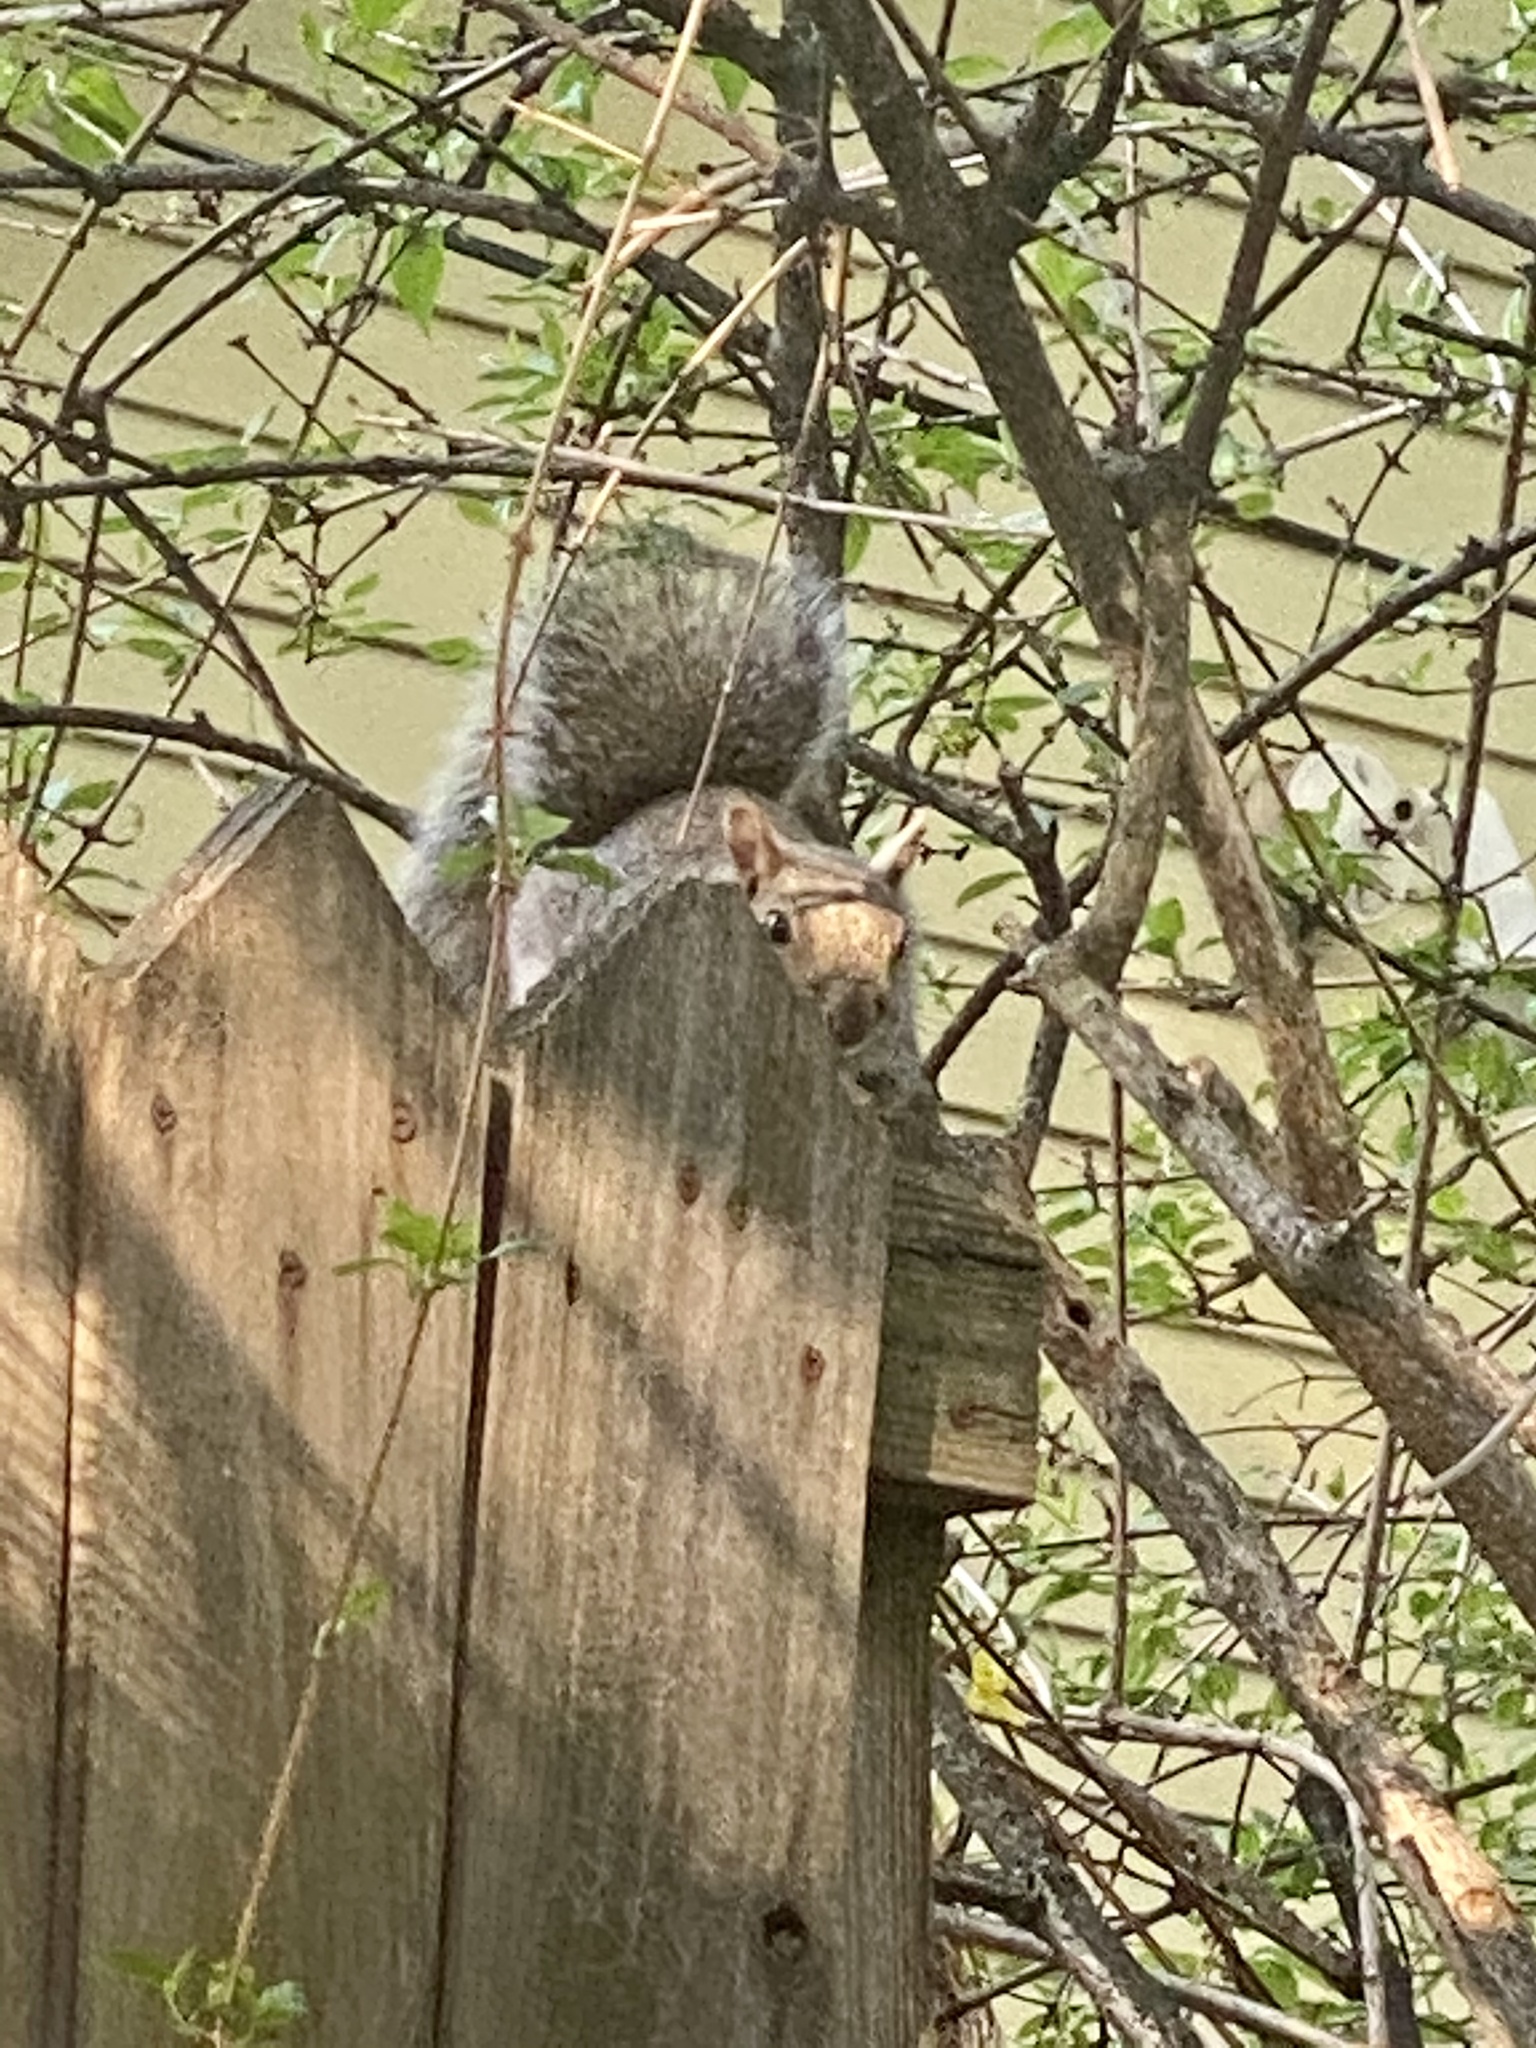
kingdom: Animalia
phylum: Chordata
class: Mammalia
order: Rodentia
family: Sciuridae
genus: Sciurus
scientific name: Sciurus carolinensis
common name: Eastern gray squirrel
